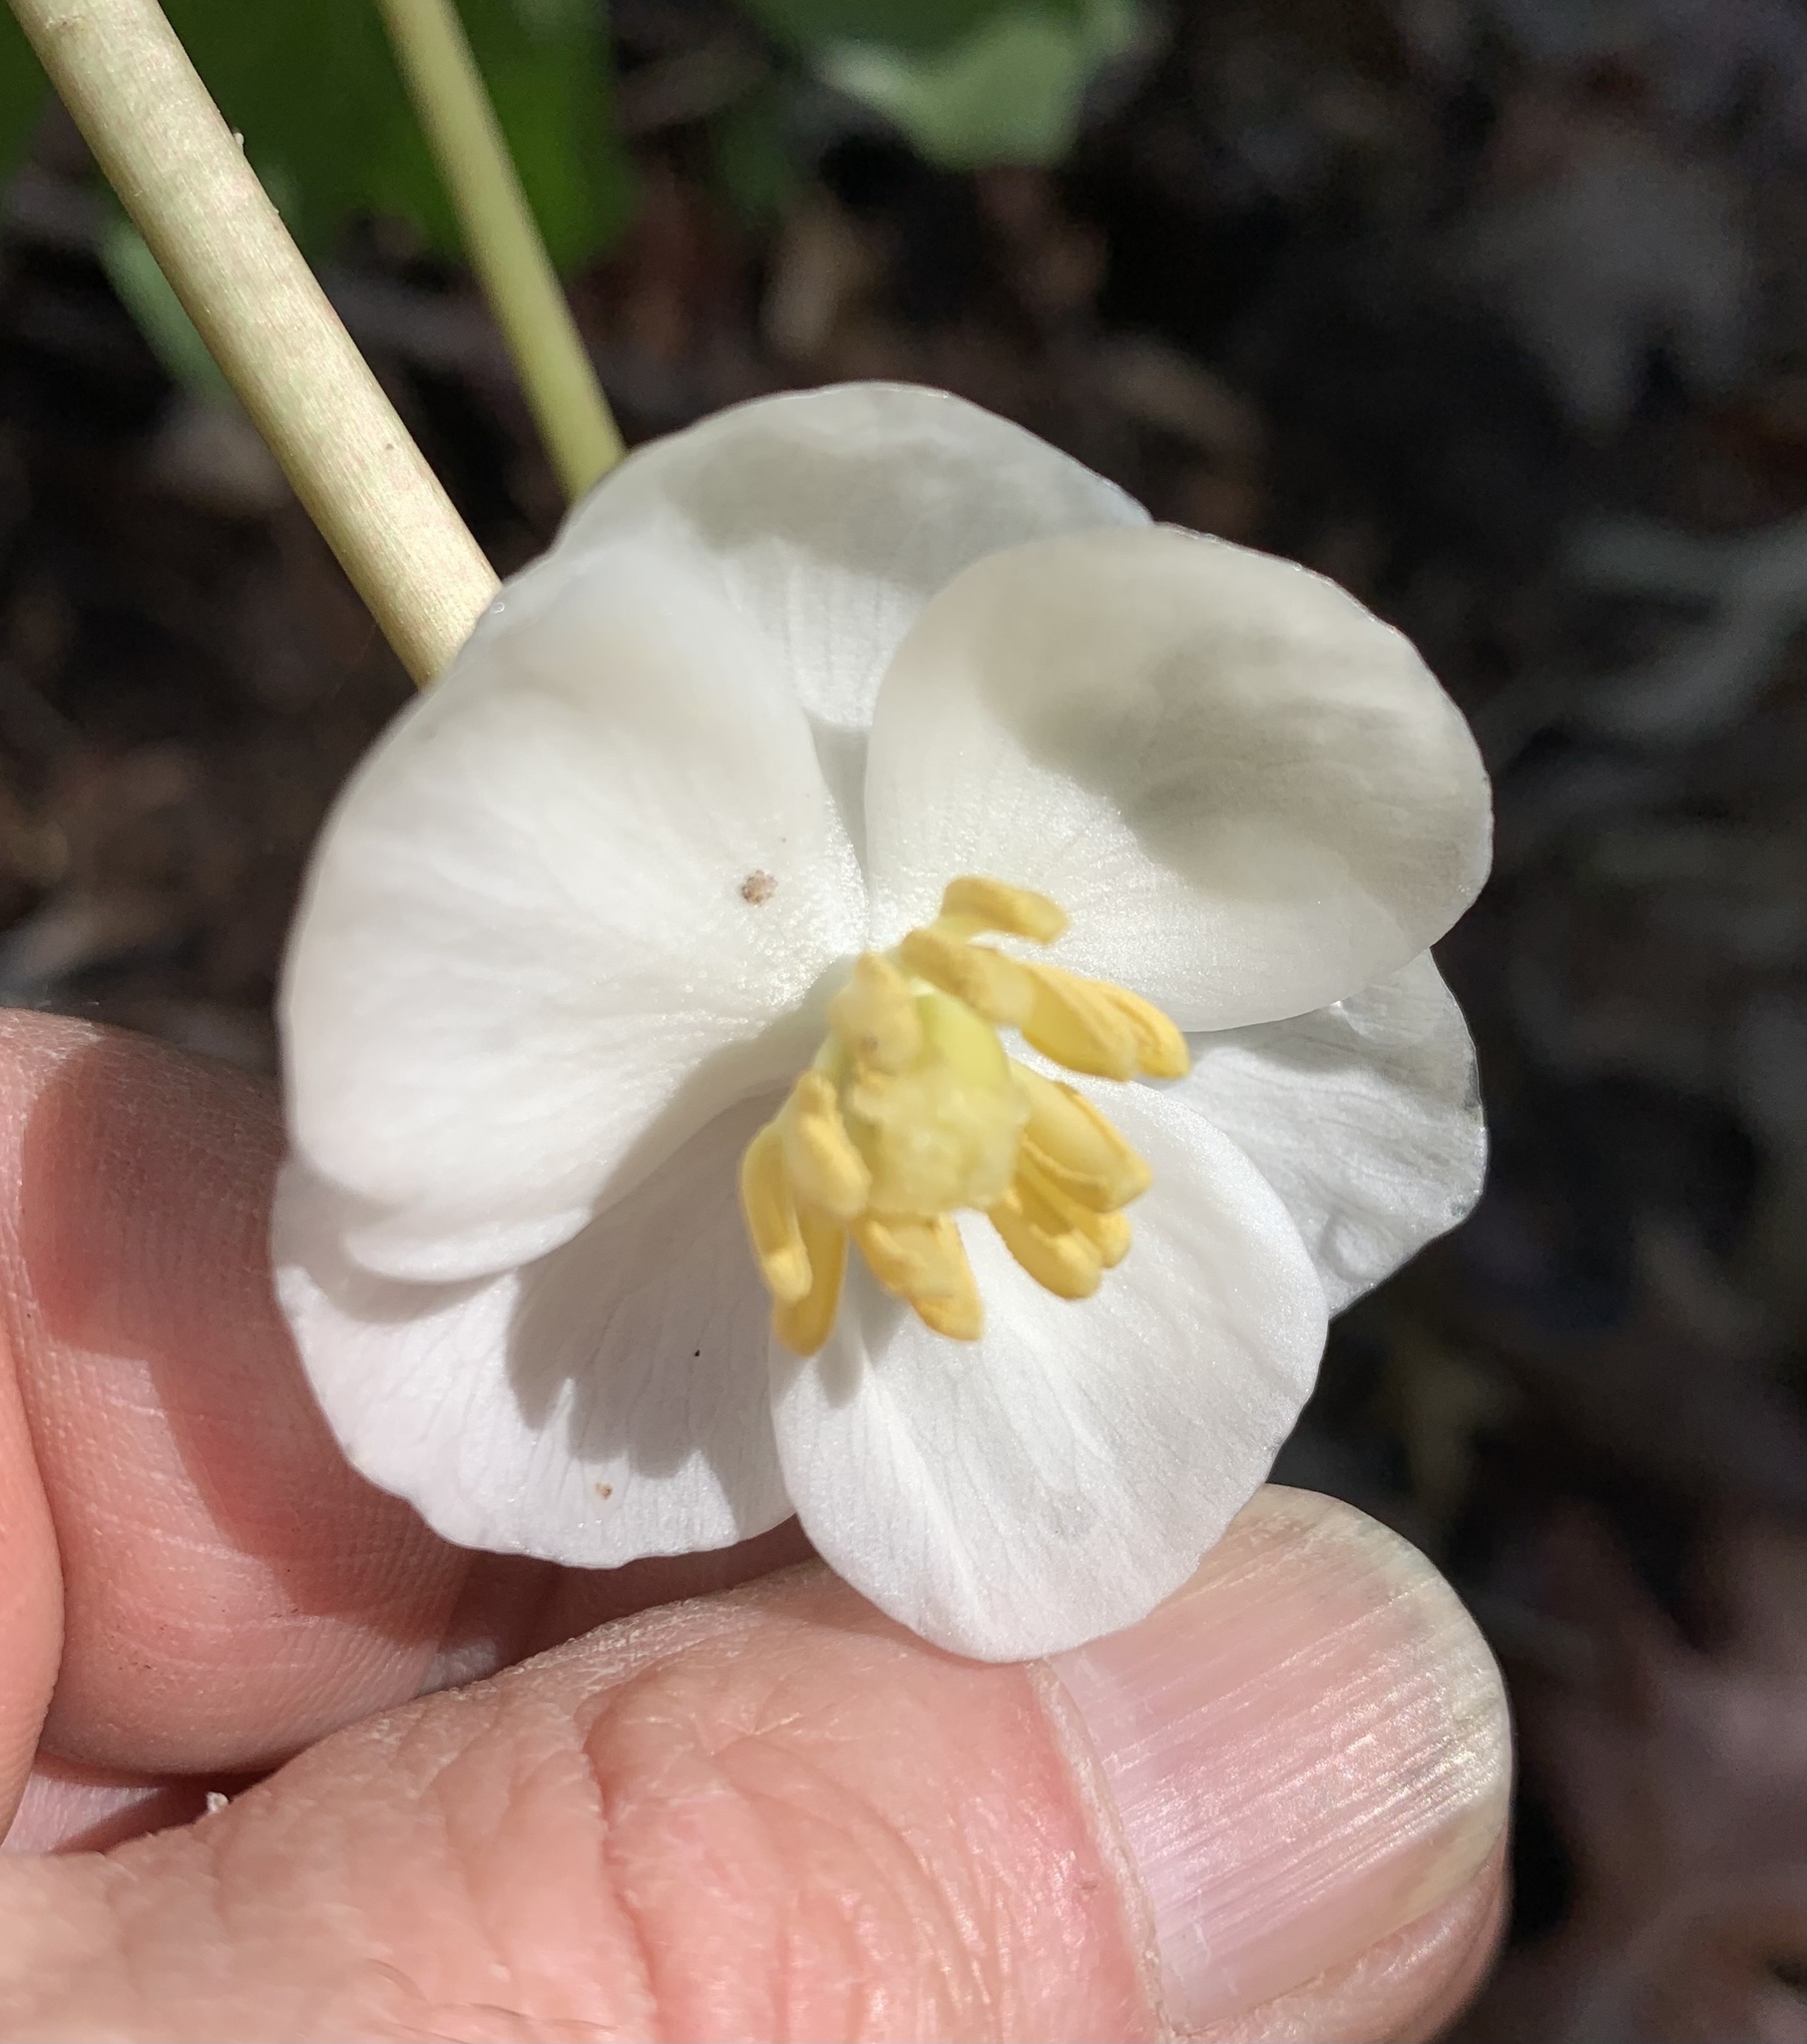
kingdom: Plantae
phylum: Tracheophyta
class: Magnoliopsida
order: Ranunculales
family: Berberidaceae
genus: Podophyllum
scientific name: Podophyllum peltatum
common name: Wild mandrake
